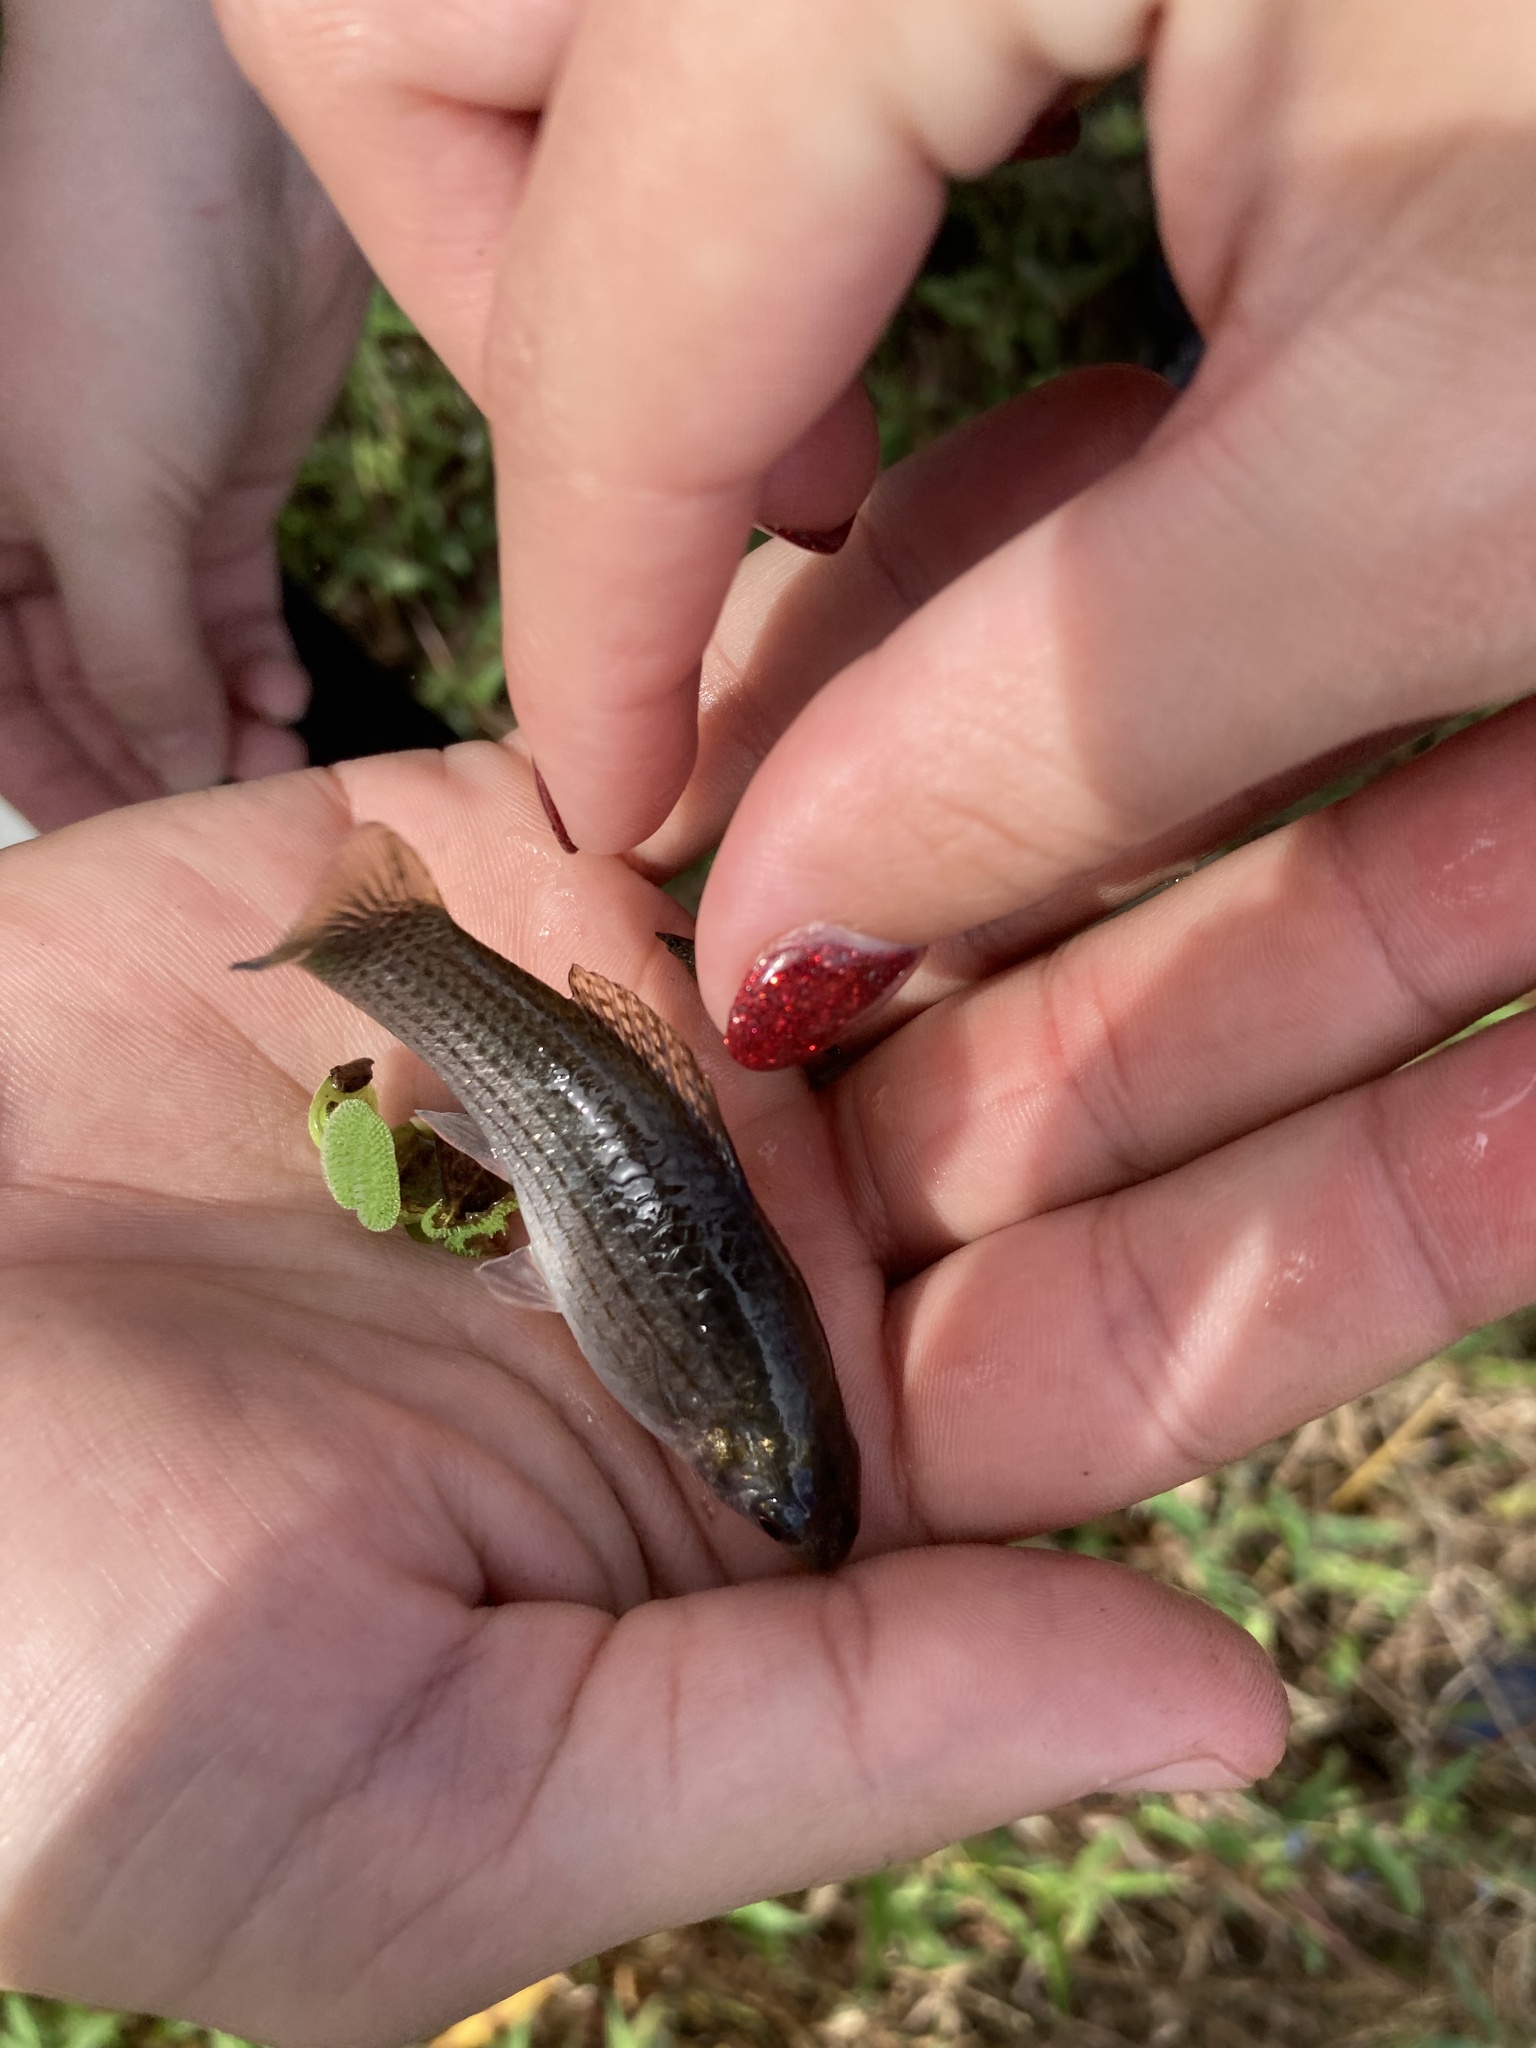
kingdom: Animalia
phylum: Chordata
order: Cyprinodontiformes
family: Poeciliidae
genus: Poecilia
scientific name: Poecilia latipinna
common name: Sailfin molly
